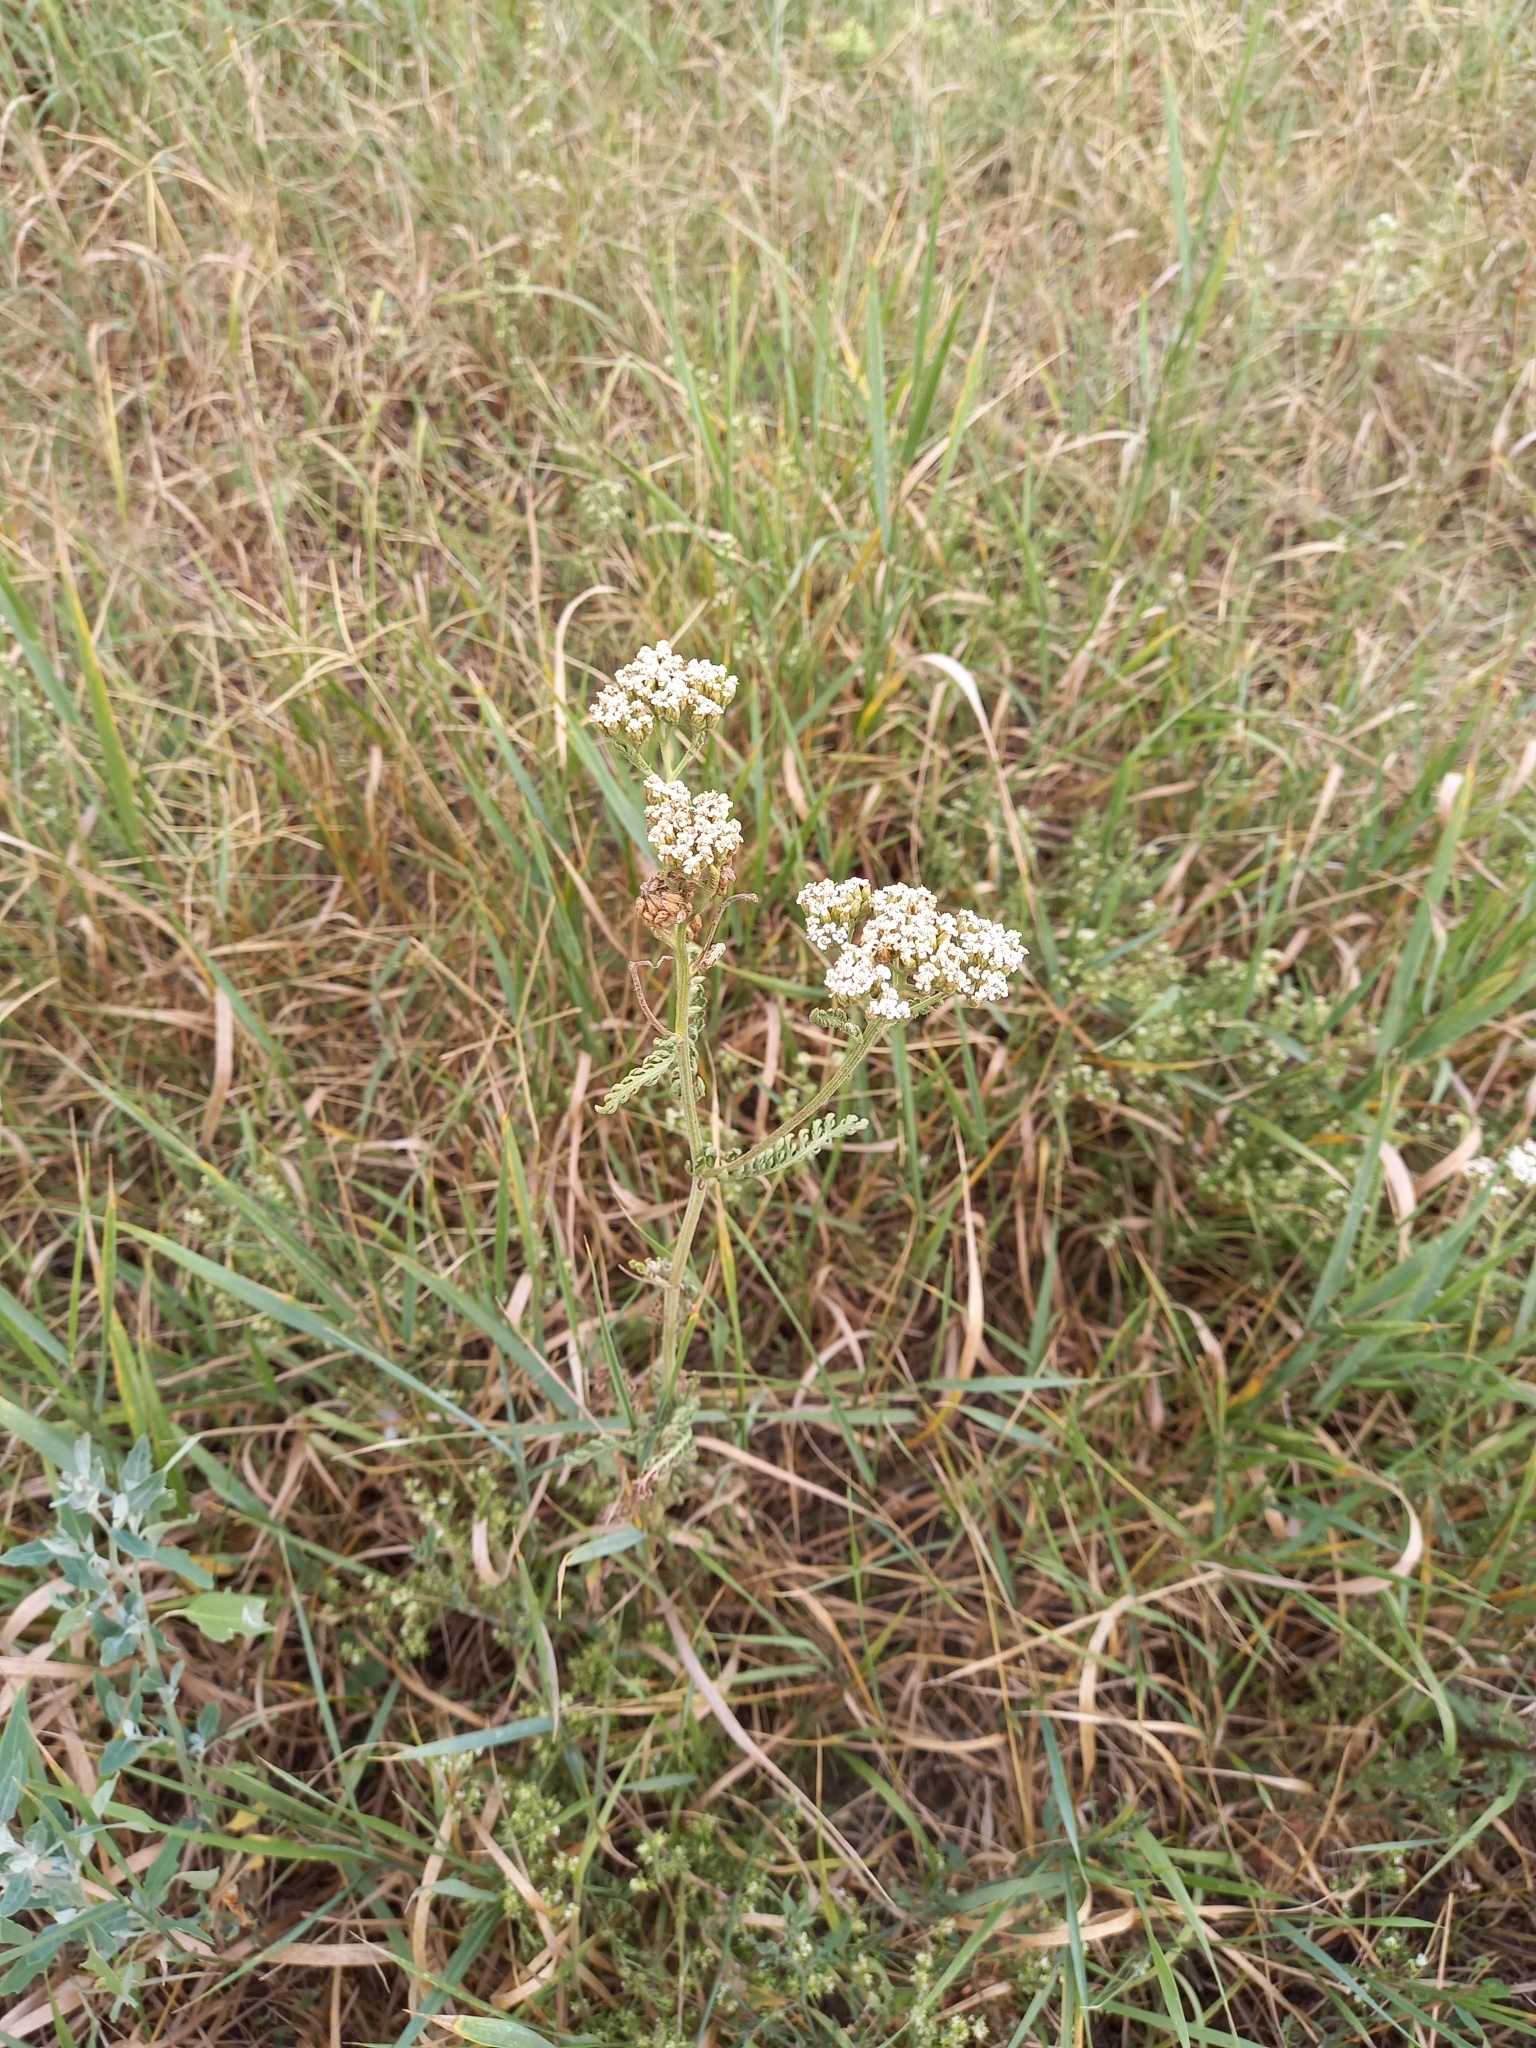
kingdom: Plantae
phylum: Tracheophyta
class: Magnoliopsida
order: Asterales
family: Asteraceae
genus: Achillea
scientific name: Achillea millefolium
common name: Yarrow
